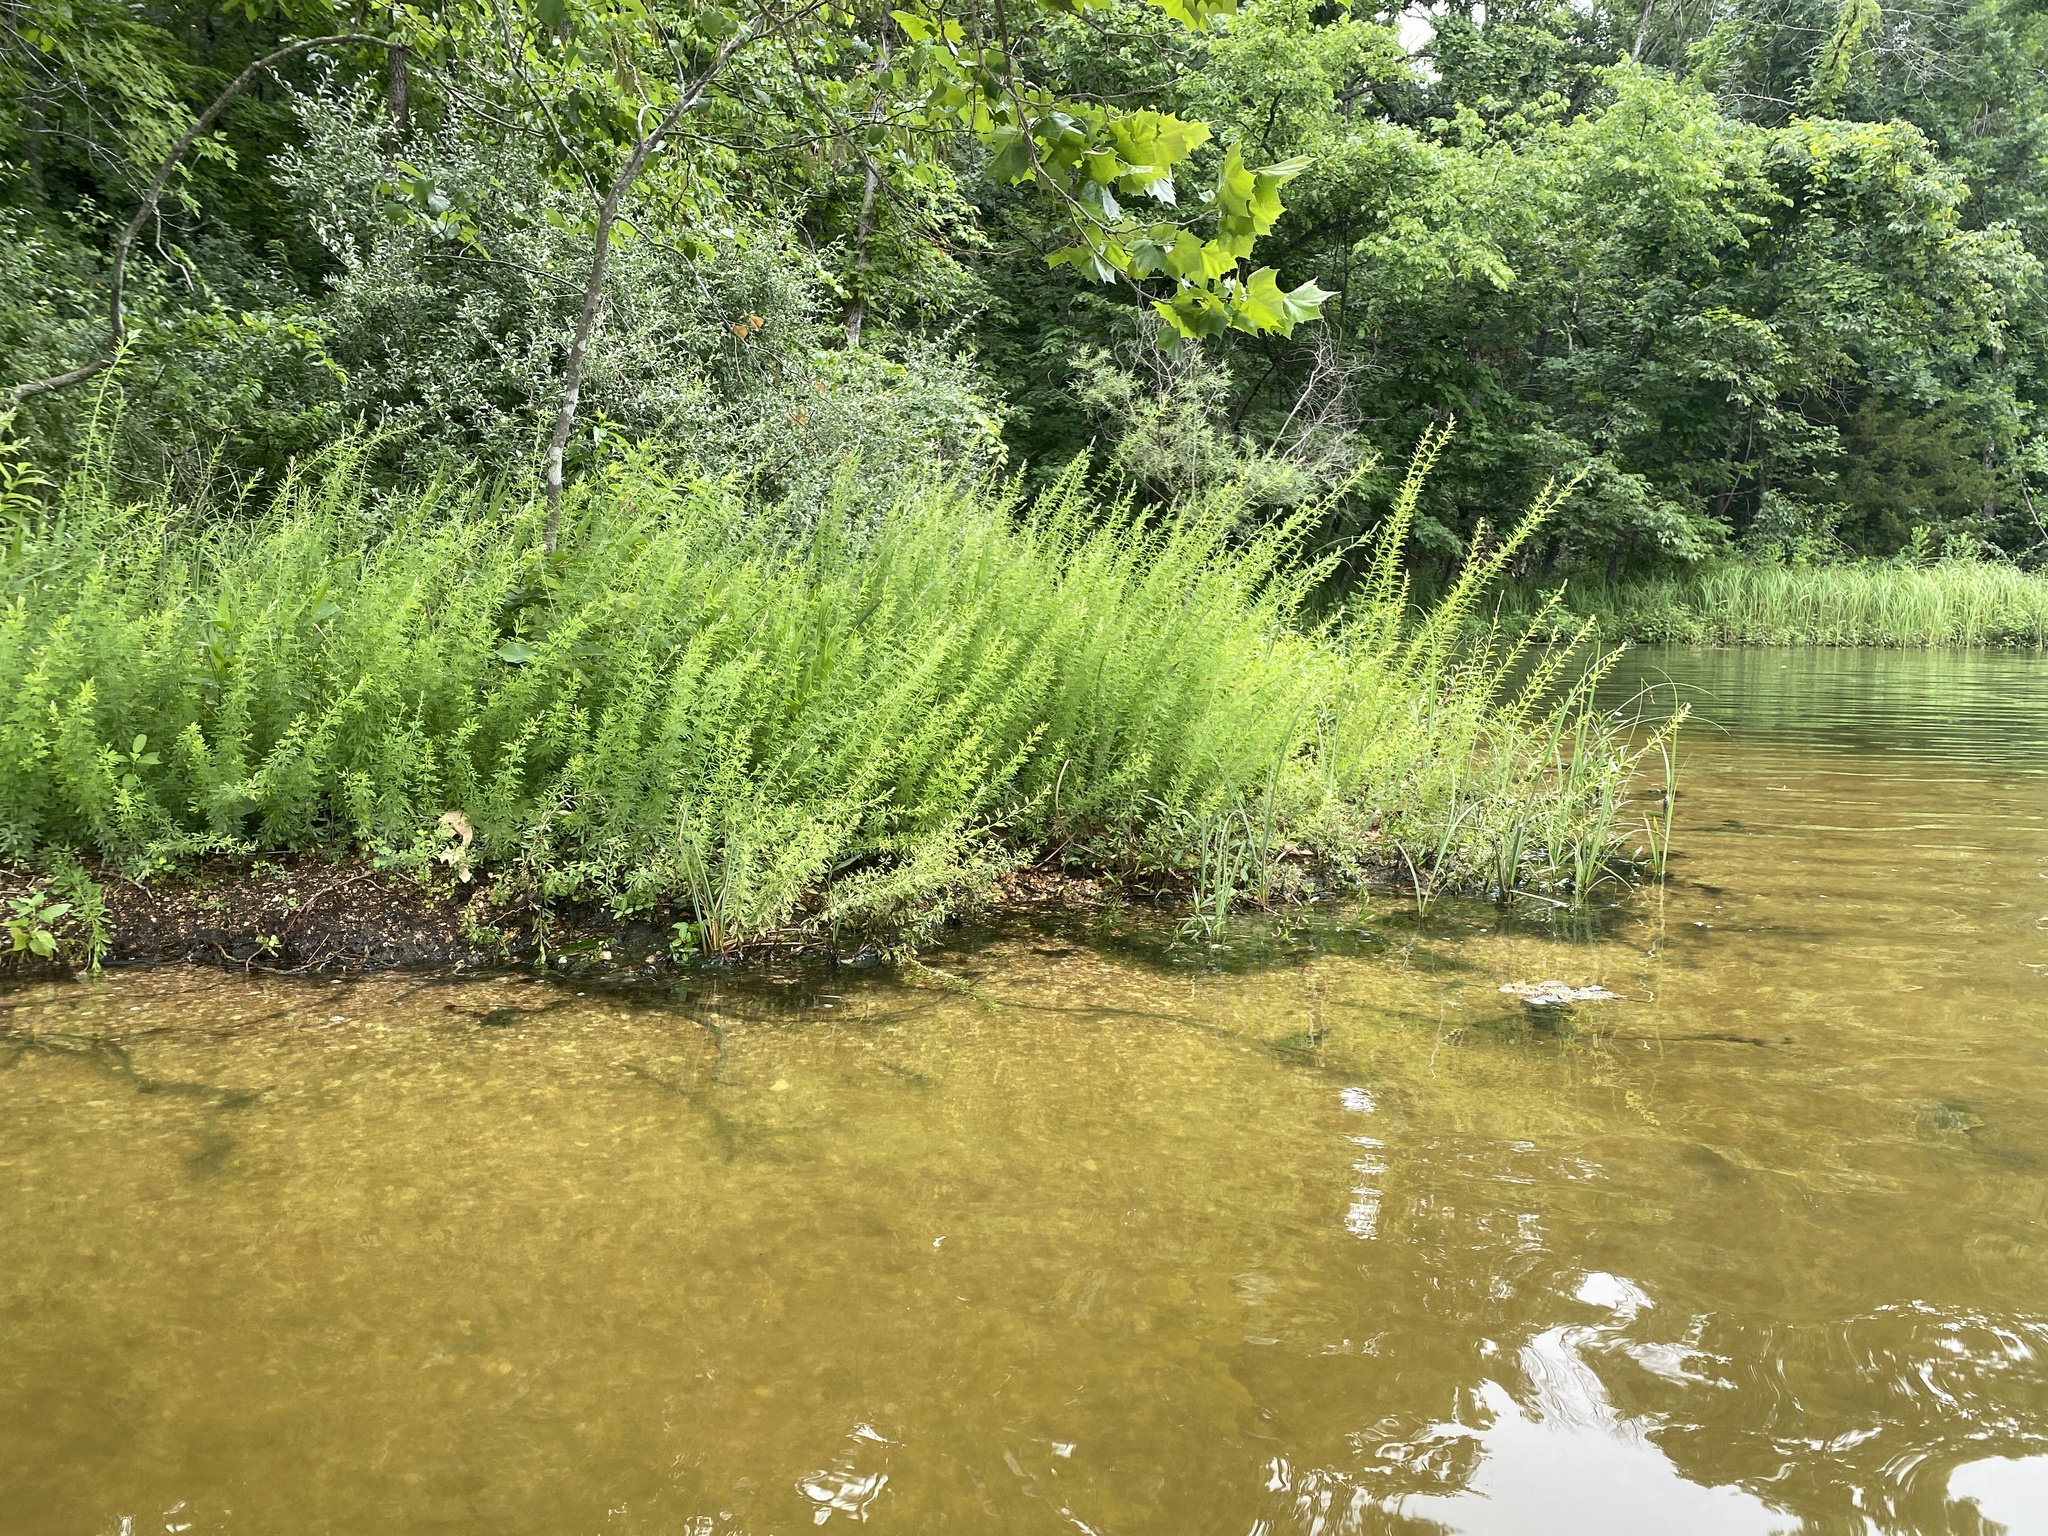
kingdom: Plantae
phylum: Tracheophyta
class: Magnoliopsida
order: Fabales
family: Fabaceae
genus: Lespedeza
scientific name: Lespedeza cuneata
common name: Chinese bush-clover
